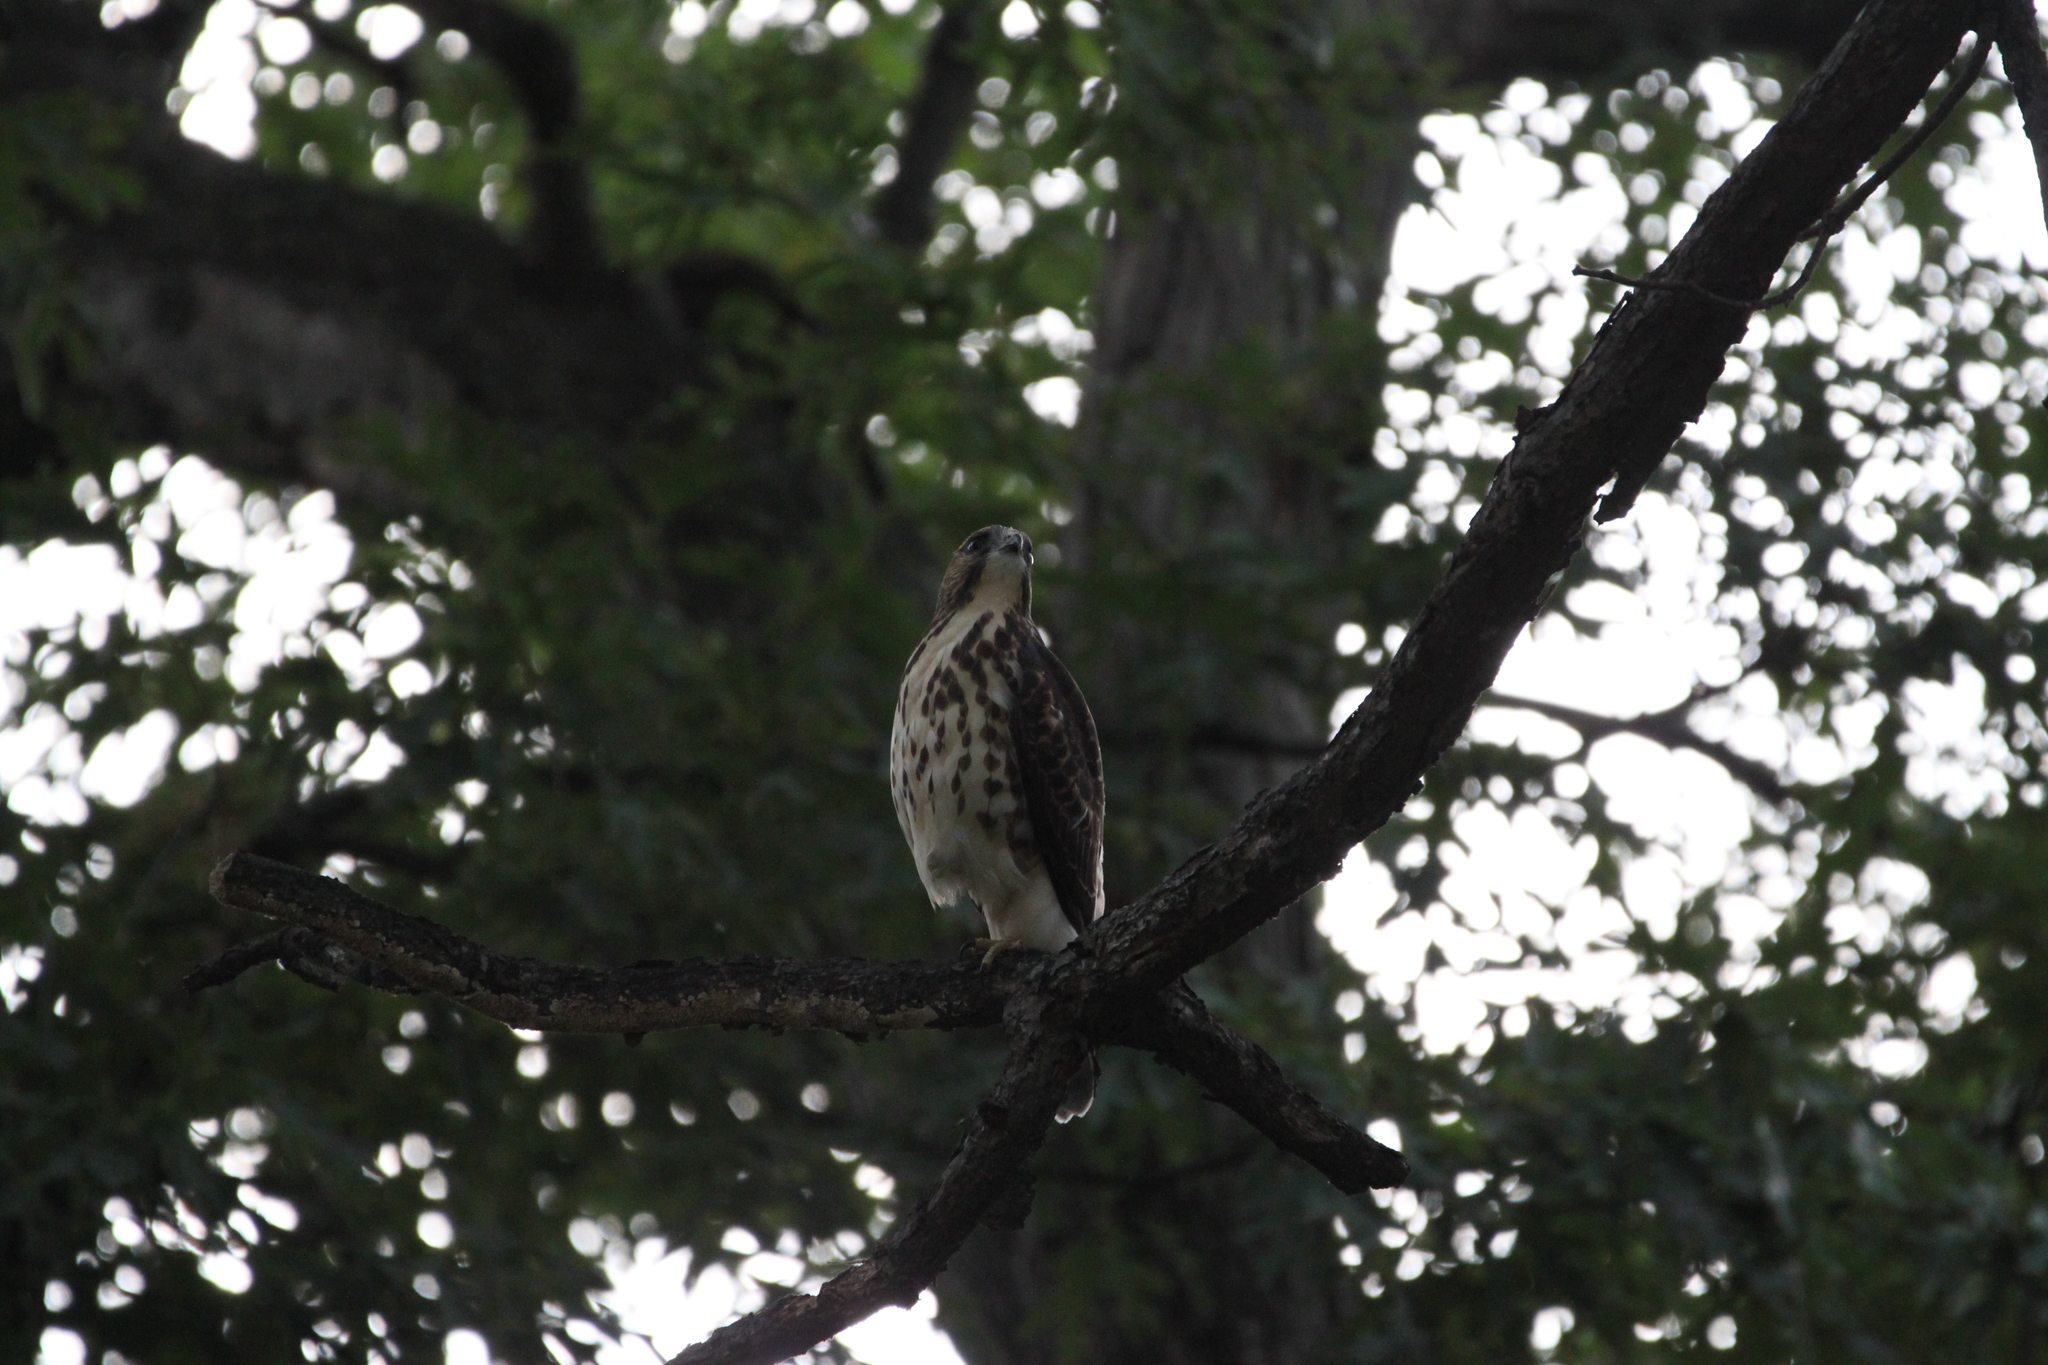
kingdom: Animalia
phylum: Chordata
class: Aves
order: Accipitriformes
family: Accipitridae
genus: Buteo
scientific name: Buteo platypterus
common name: Broad-winged hawk
